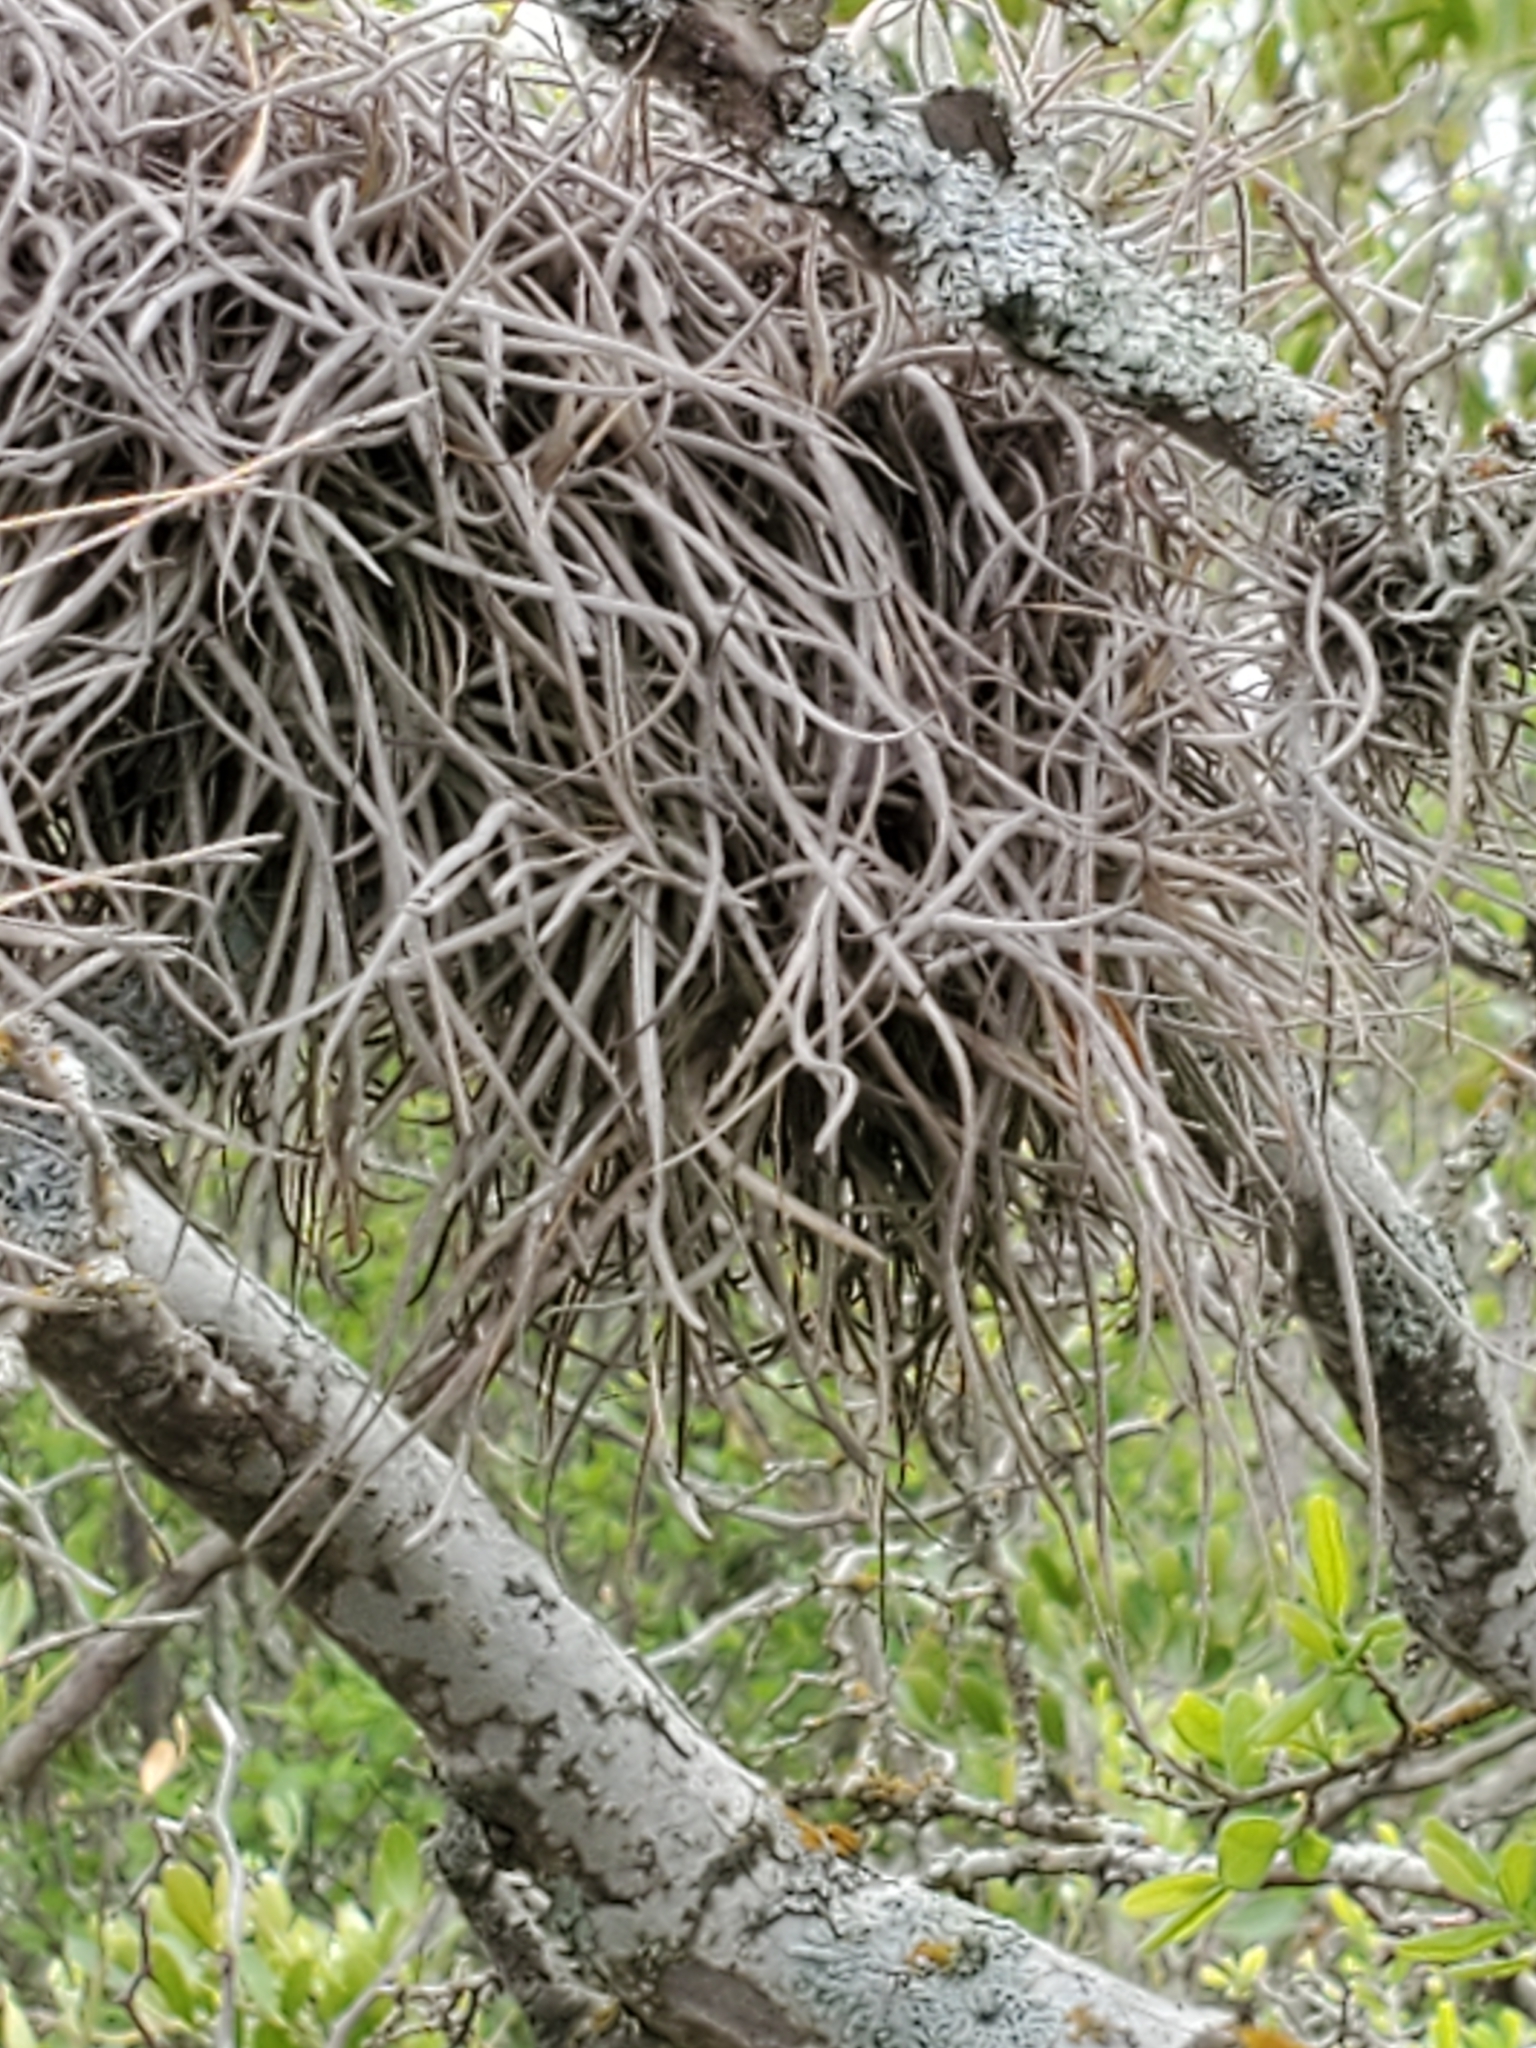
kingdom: Plantae
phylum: Tracheophyta
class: Liliopsida
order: Poales
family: Bromeliaceae
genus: Tillandsia
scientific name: Tillandsia recurvata
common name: Small ballmoss
